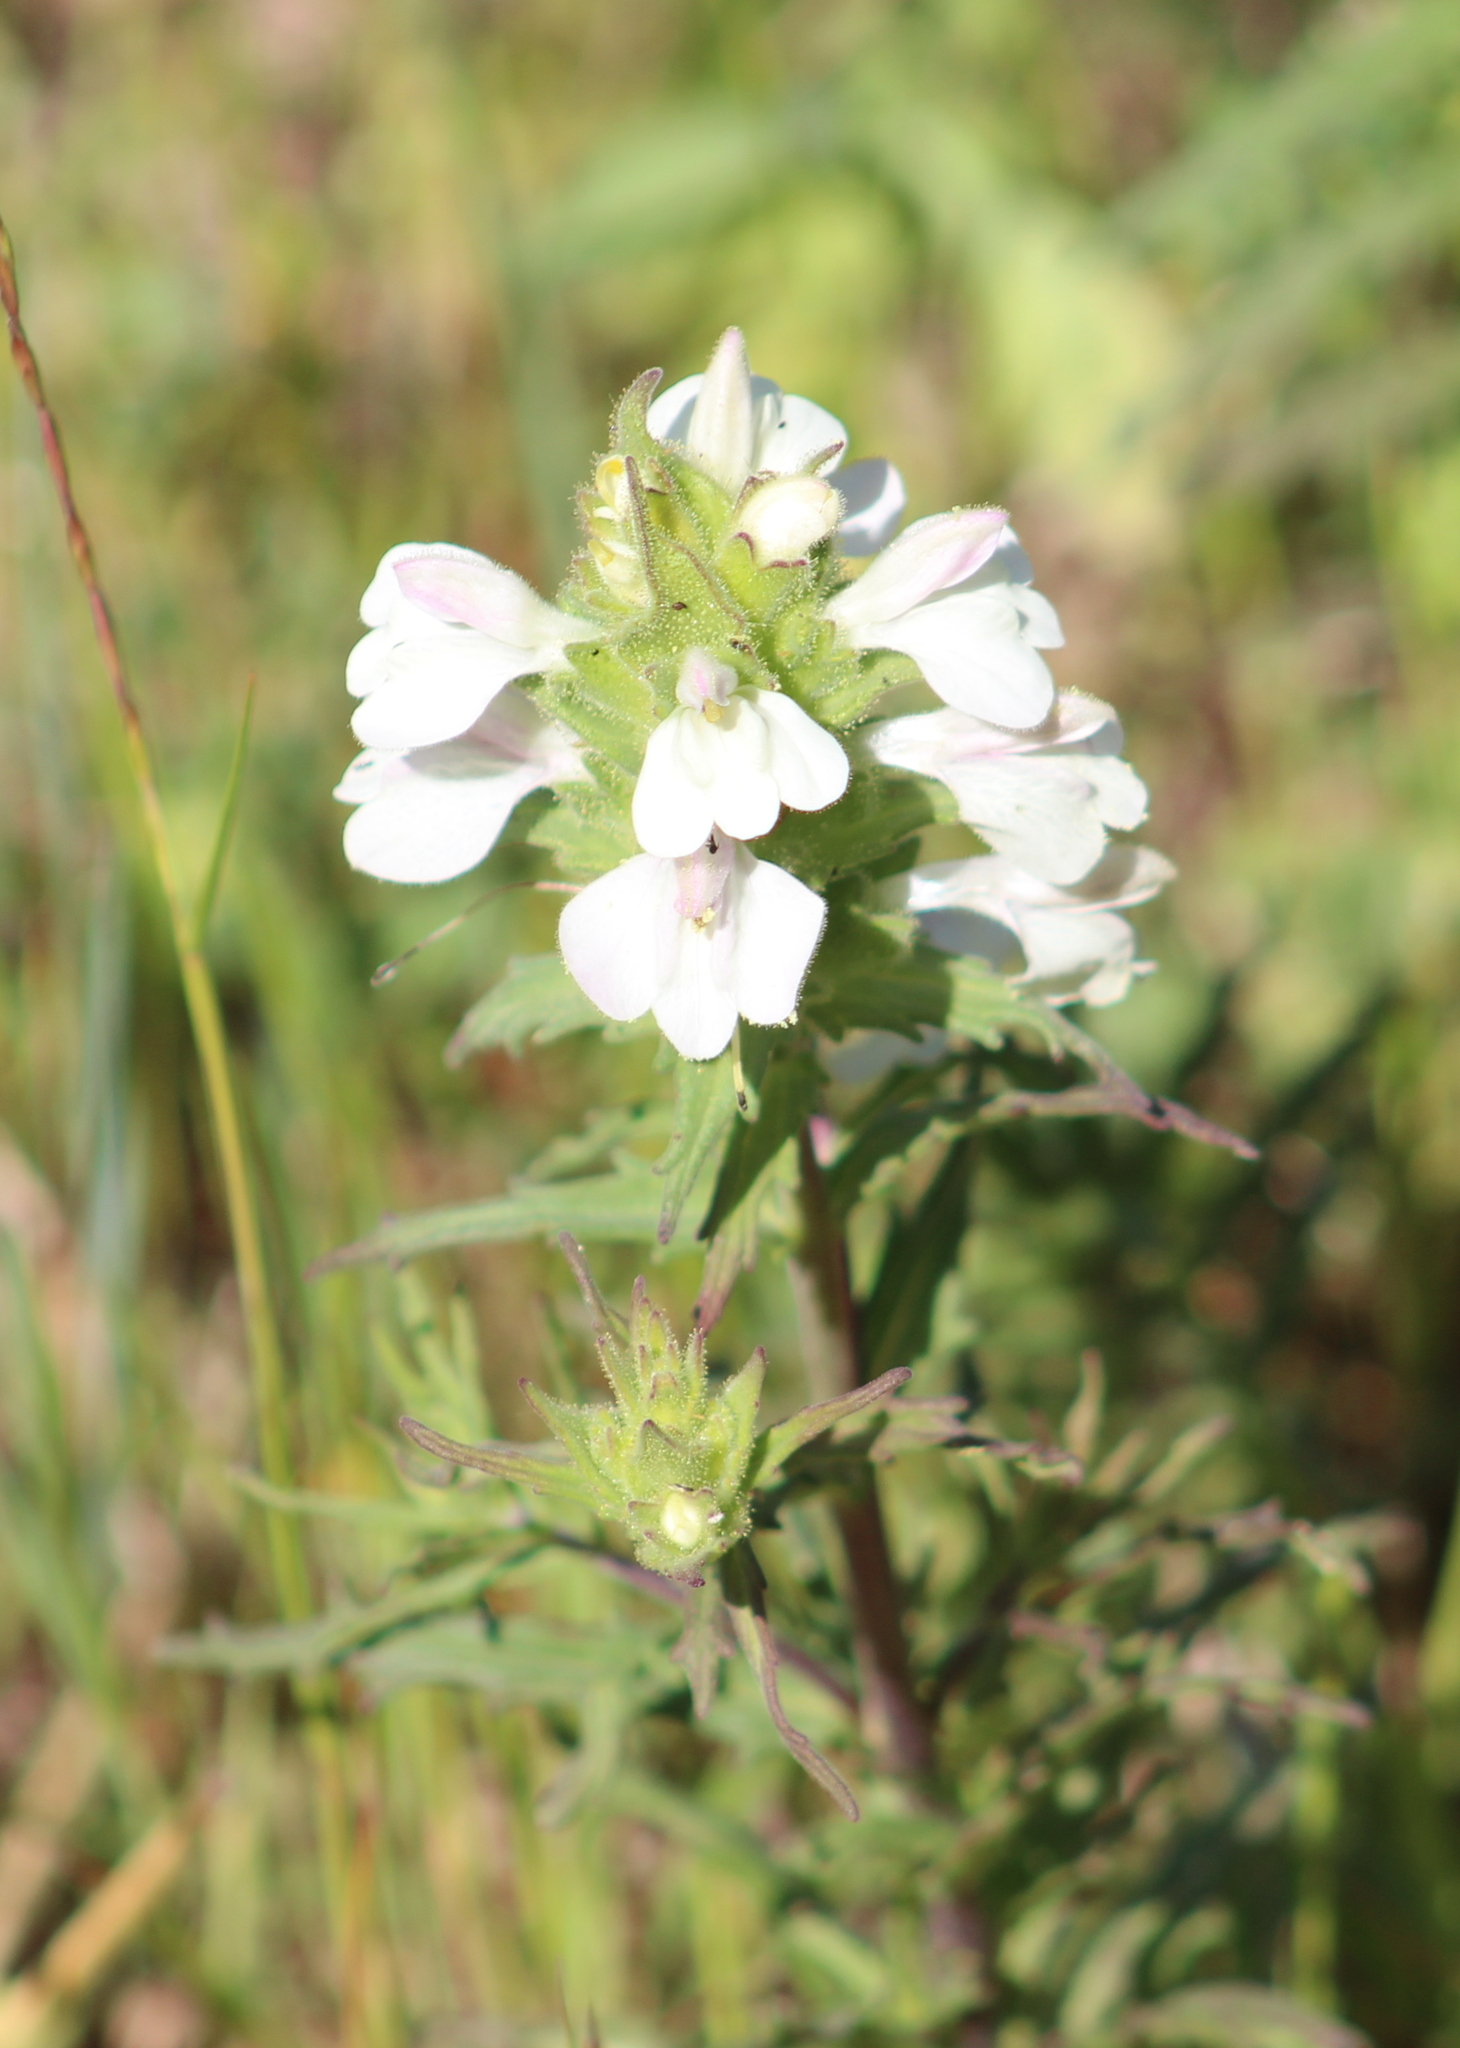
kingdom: Plantae
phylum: Tracheophyta
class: Magnoliopsida
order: Lamiales
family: Orobanchaceae
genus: Bellardia
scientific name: Bellardia trixago
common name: Mediterranean lineseed
